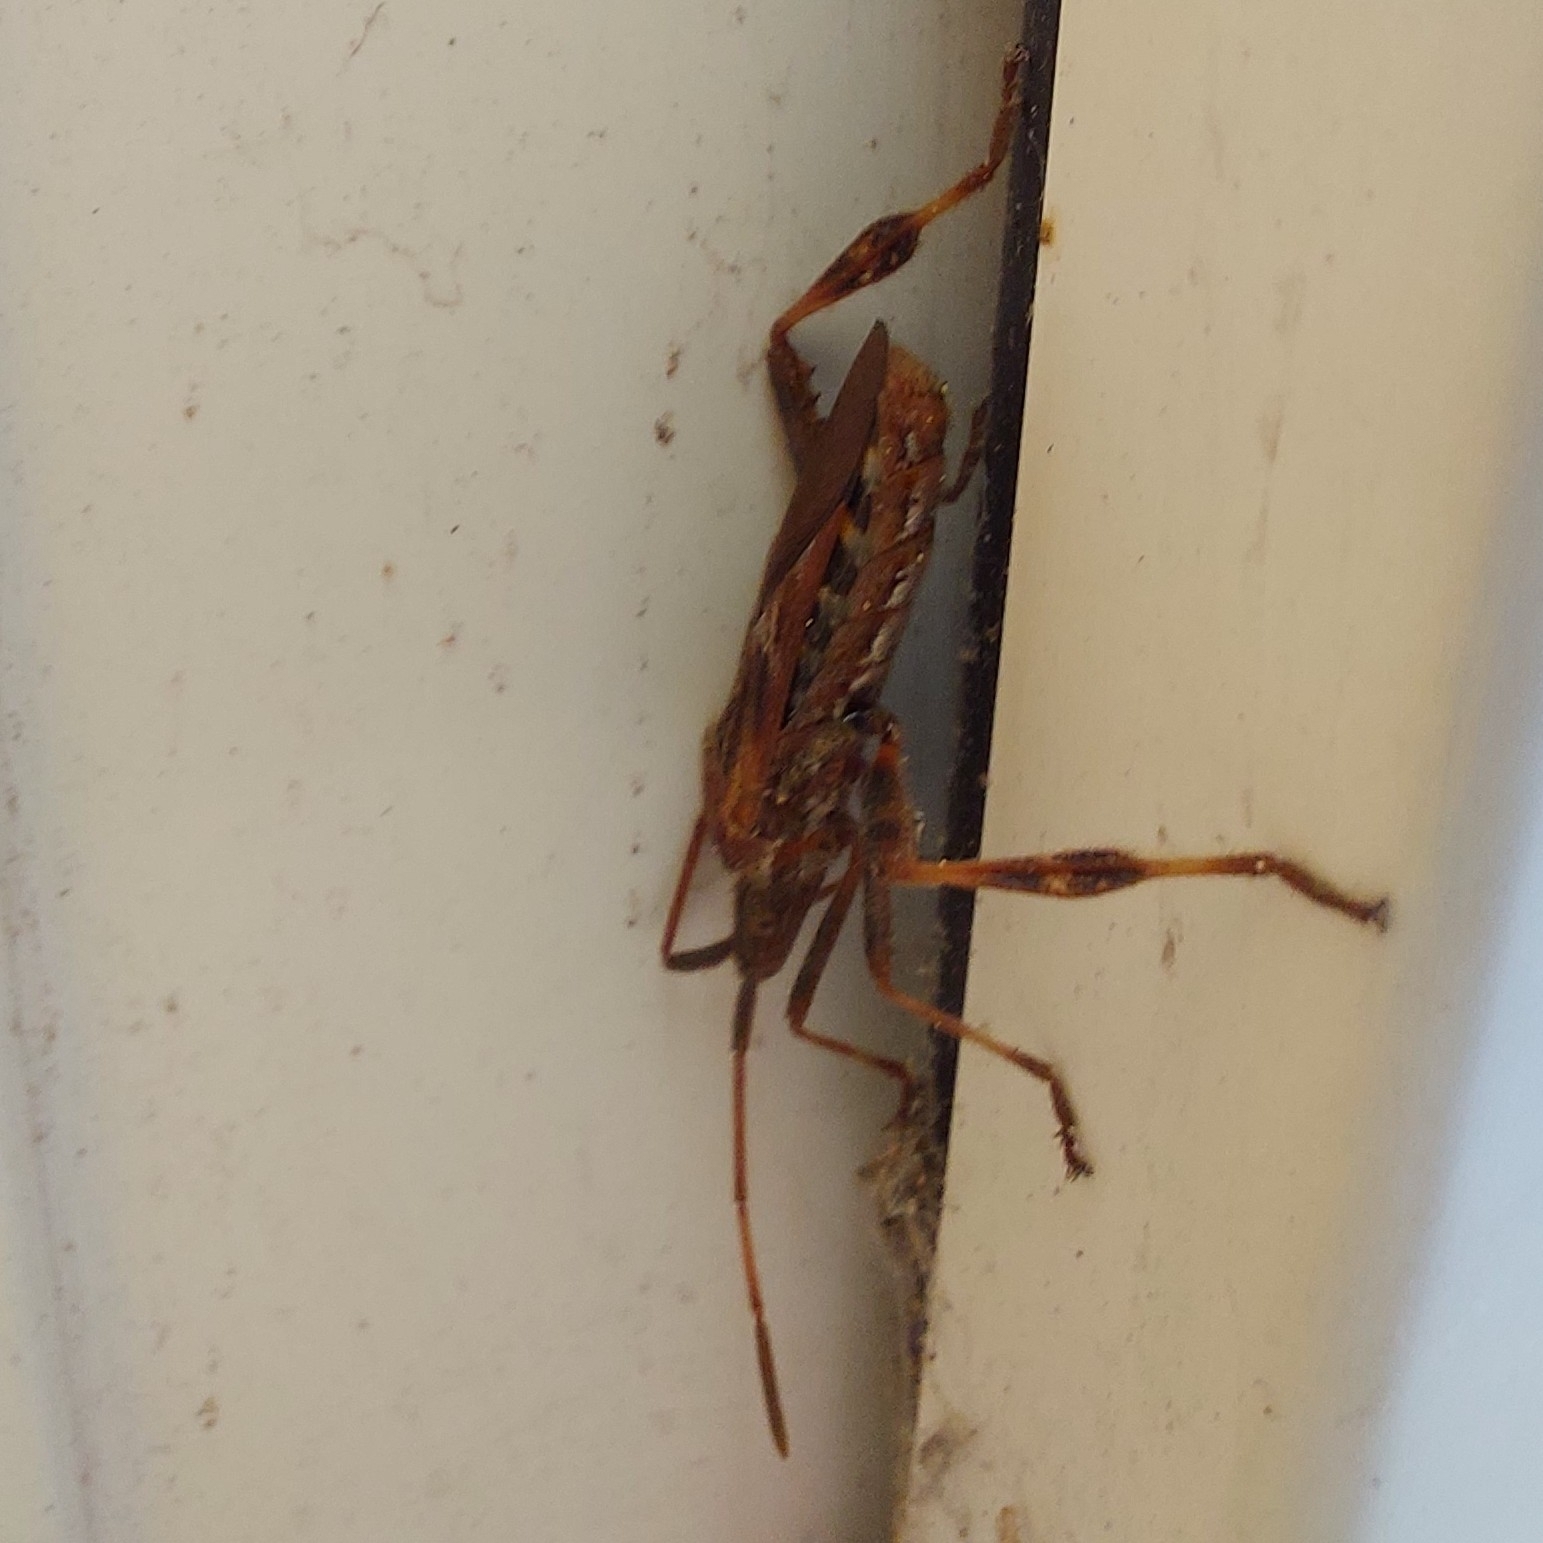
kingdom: Animalia
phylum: Arthropoda
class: Insecta
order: Hemiptera
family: Coreidae
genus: Leptoglossus
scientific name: Leptoglossus occidentalis
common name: Western conifer-seed bug
